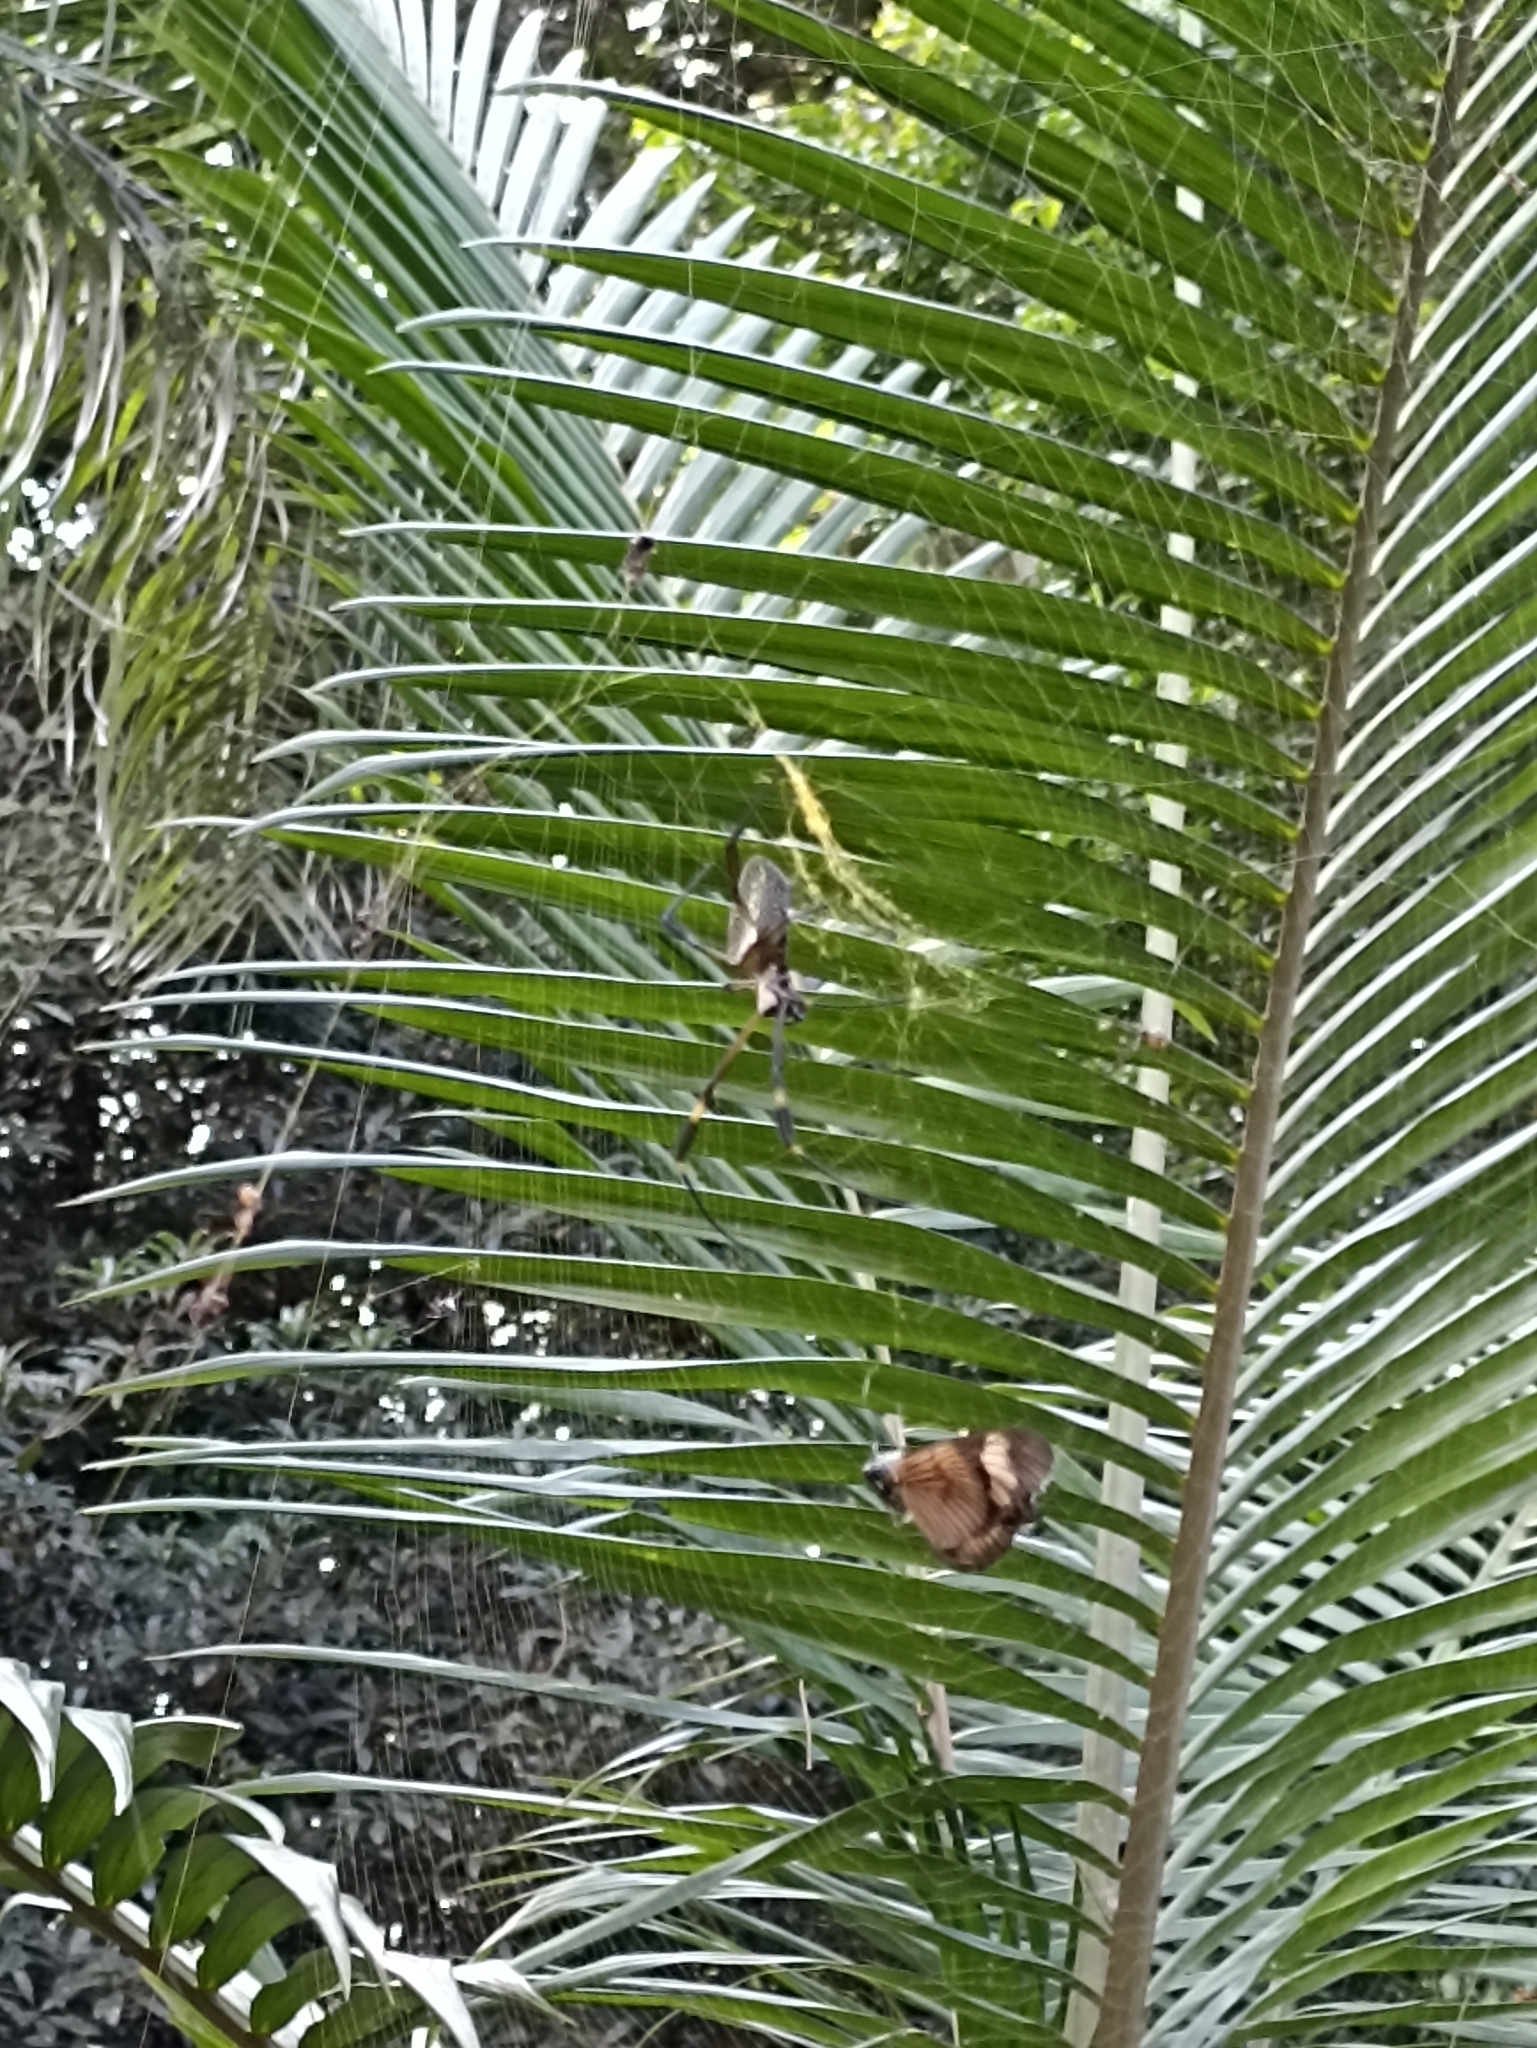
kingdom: Animalia
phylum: Arthropoda
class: Arachnida
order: Araneae
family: Araneidae
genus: Trichonephila
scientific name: Trichonephila clavipes
